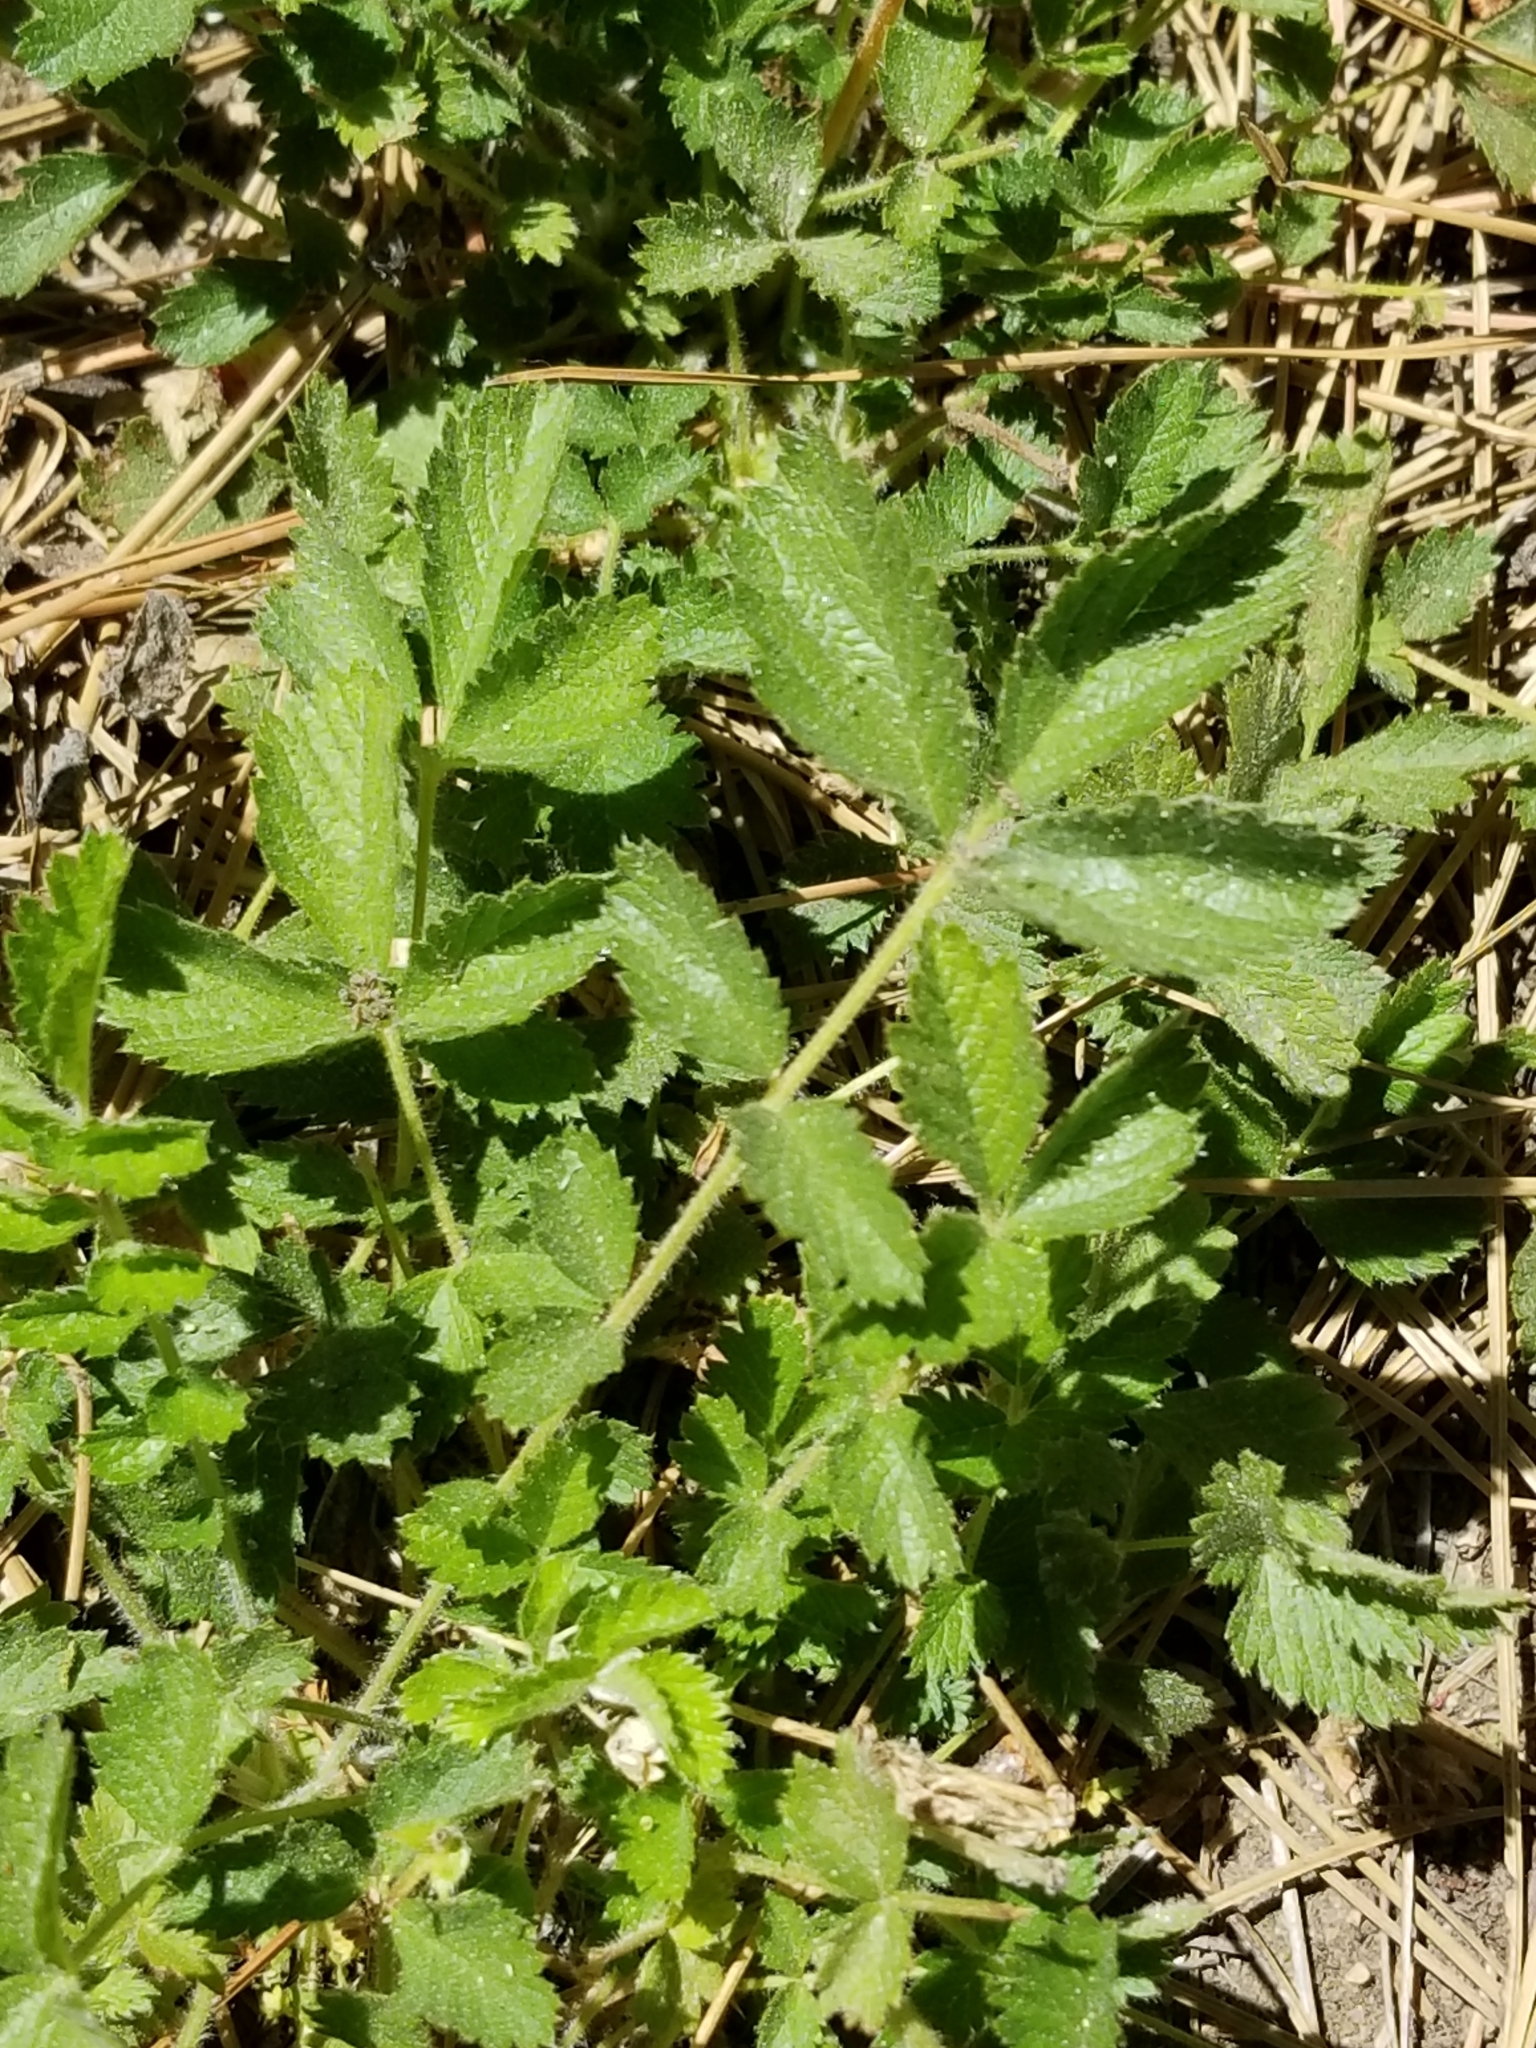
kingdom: Plantae
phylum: Tracheophyta
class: Magnoliopsida
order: Rosales
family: Rosaceae
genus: Drymocallis
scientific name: Drymocallis glandulosa
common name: Sticky cinquefoil
